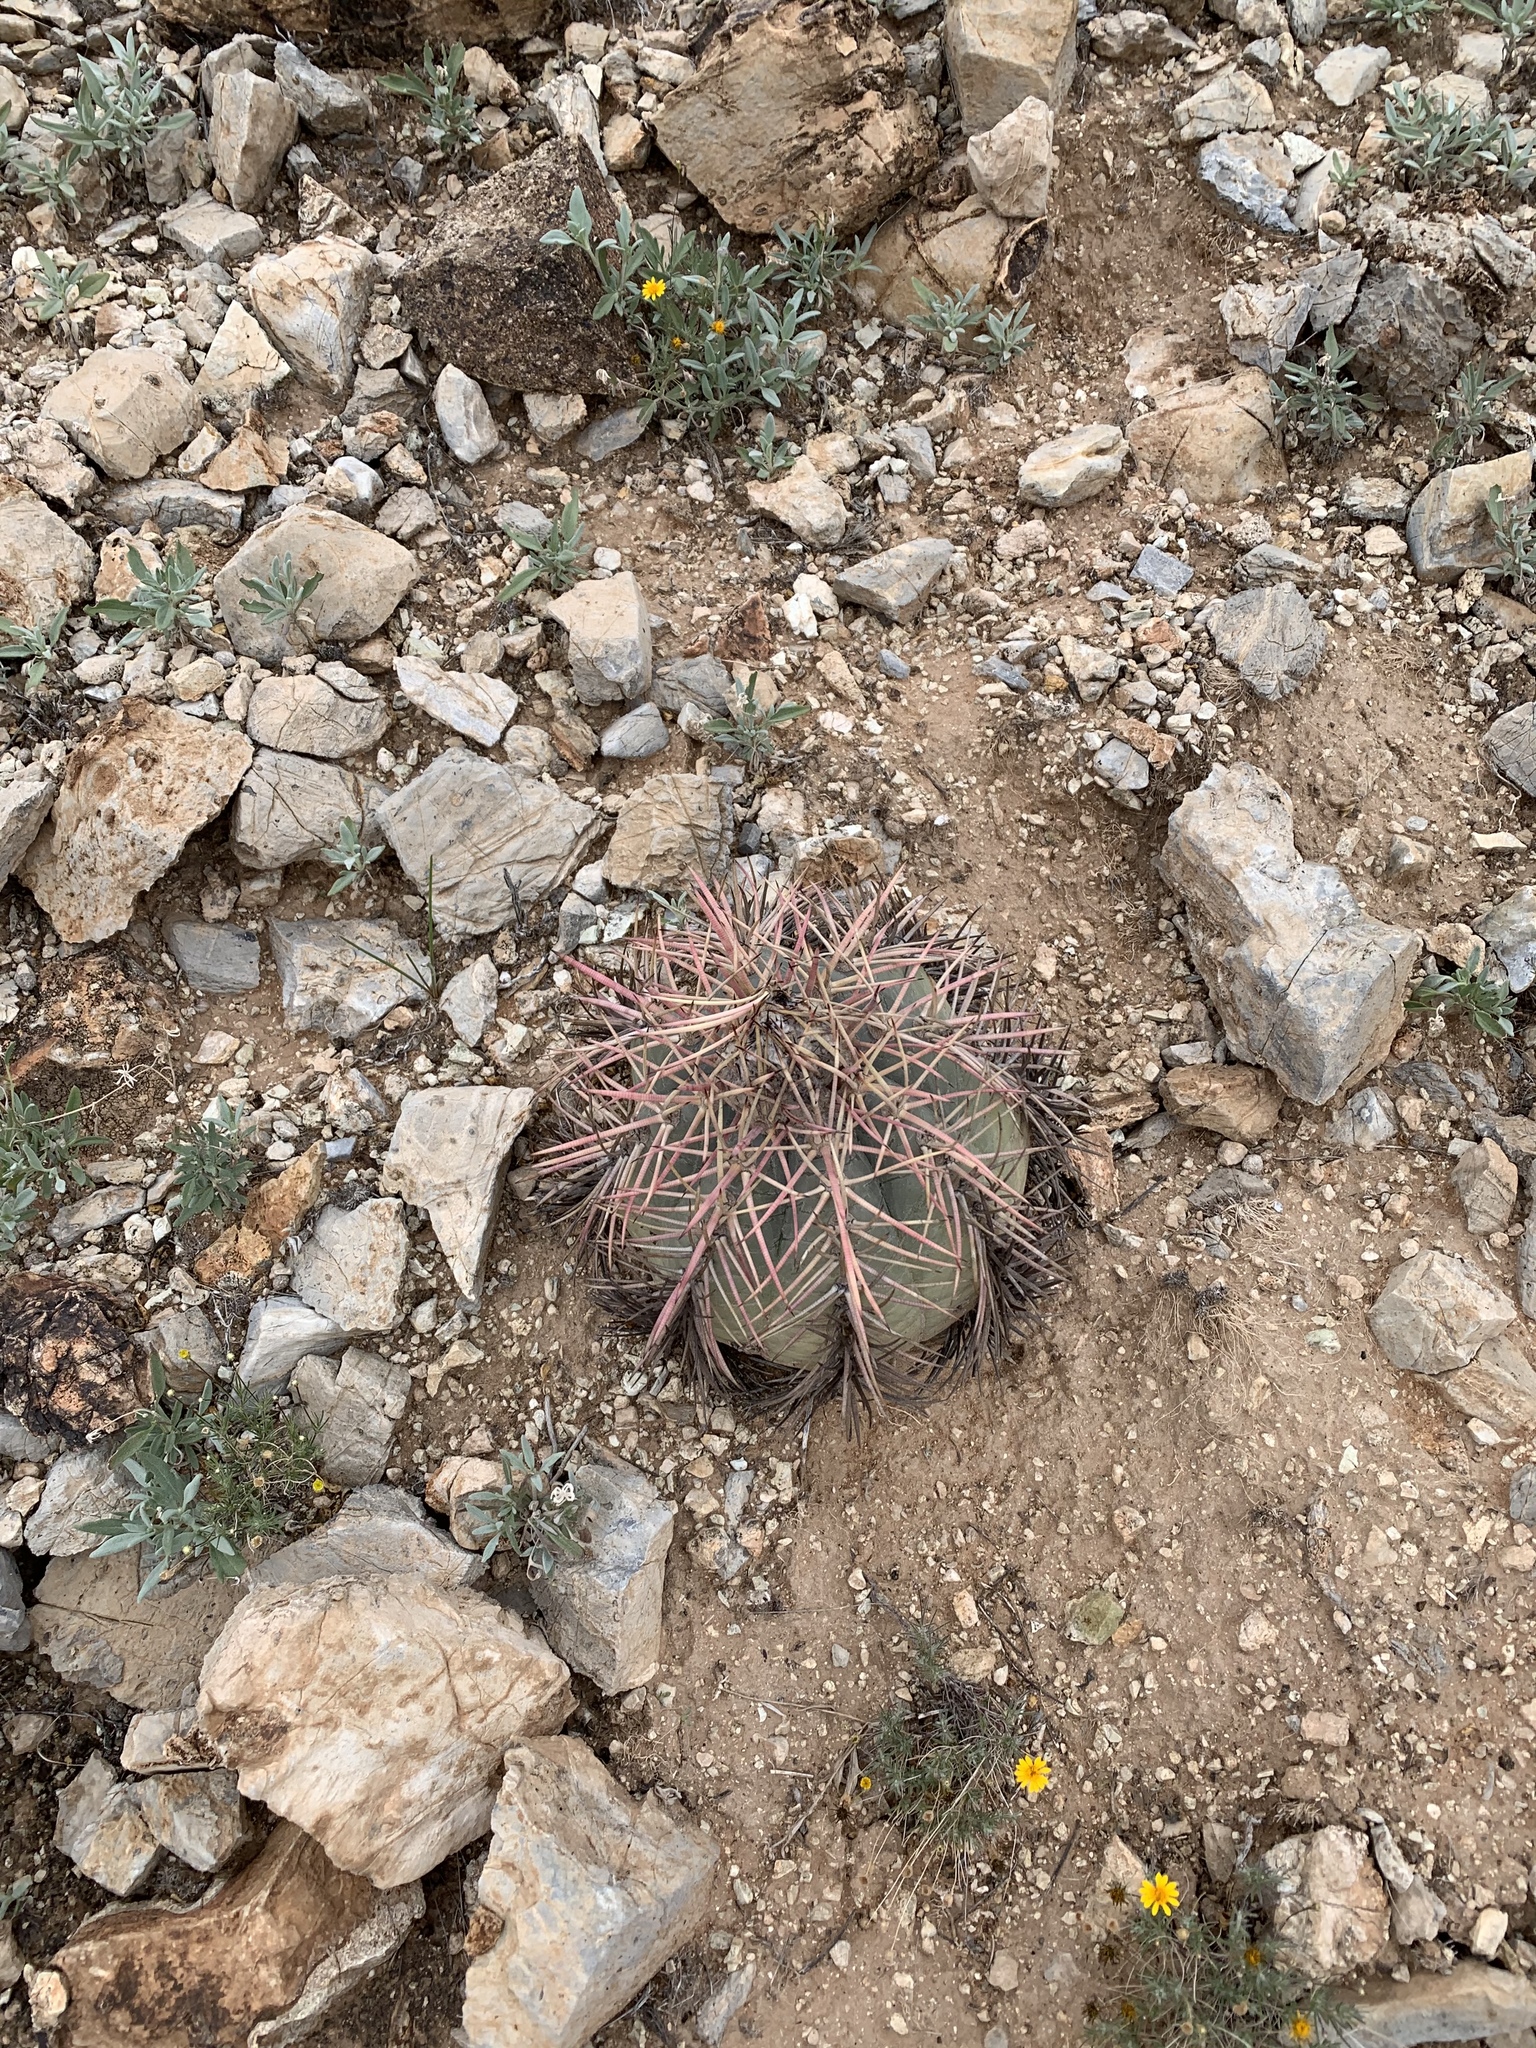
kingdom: Plantae
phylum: Tracheophyta
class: Magnoliopsida
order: Caryophyllales
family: Cactaceae
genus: Echinocactus
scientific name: Echinocactus horizonthalonius
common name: Devilshead
